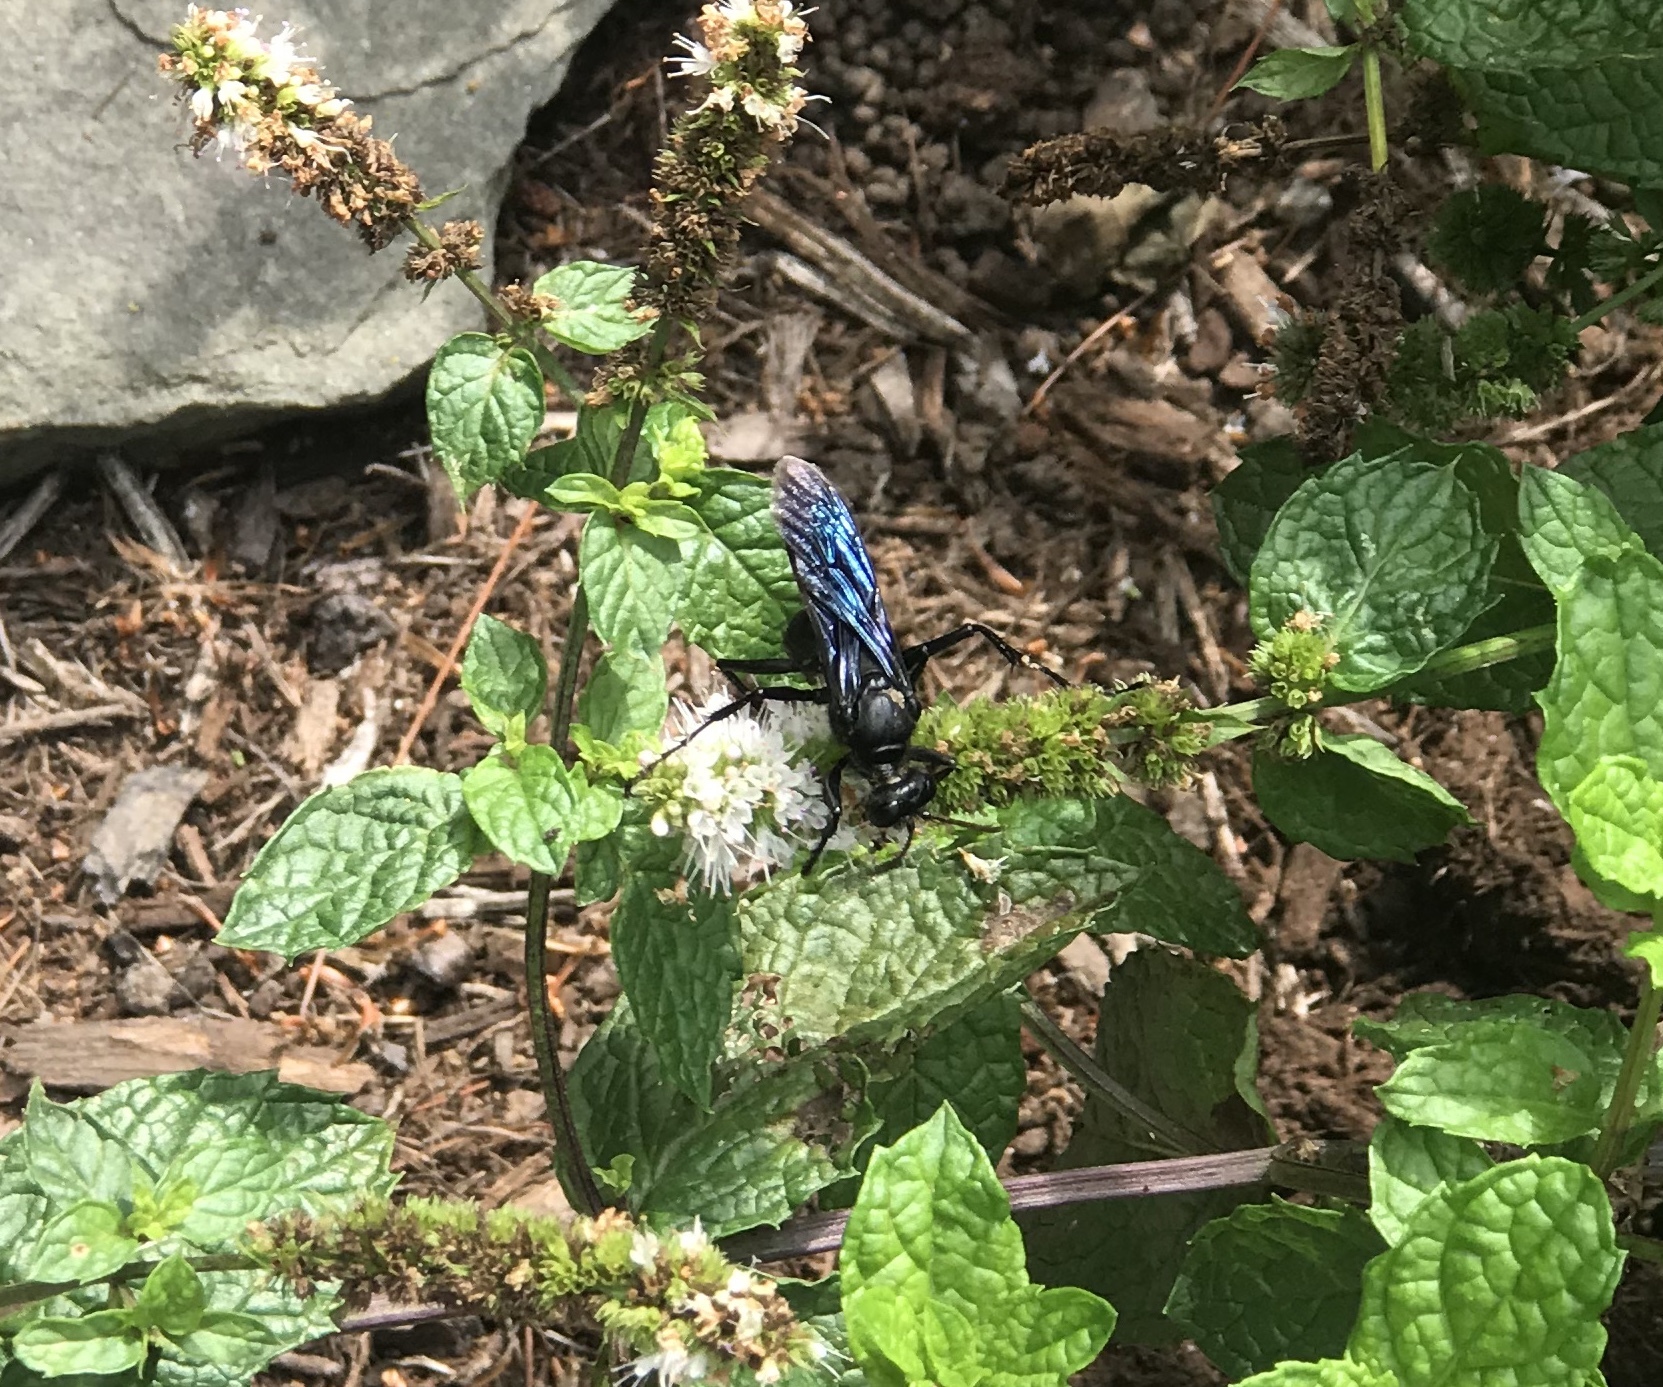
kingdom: Animalia
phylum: Arthropoda
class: Insecta
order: Hymenoptera
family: Sphecidae
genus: Sphex
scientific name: Sphex pensylvanicus
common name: Great black digger wasp
